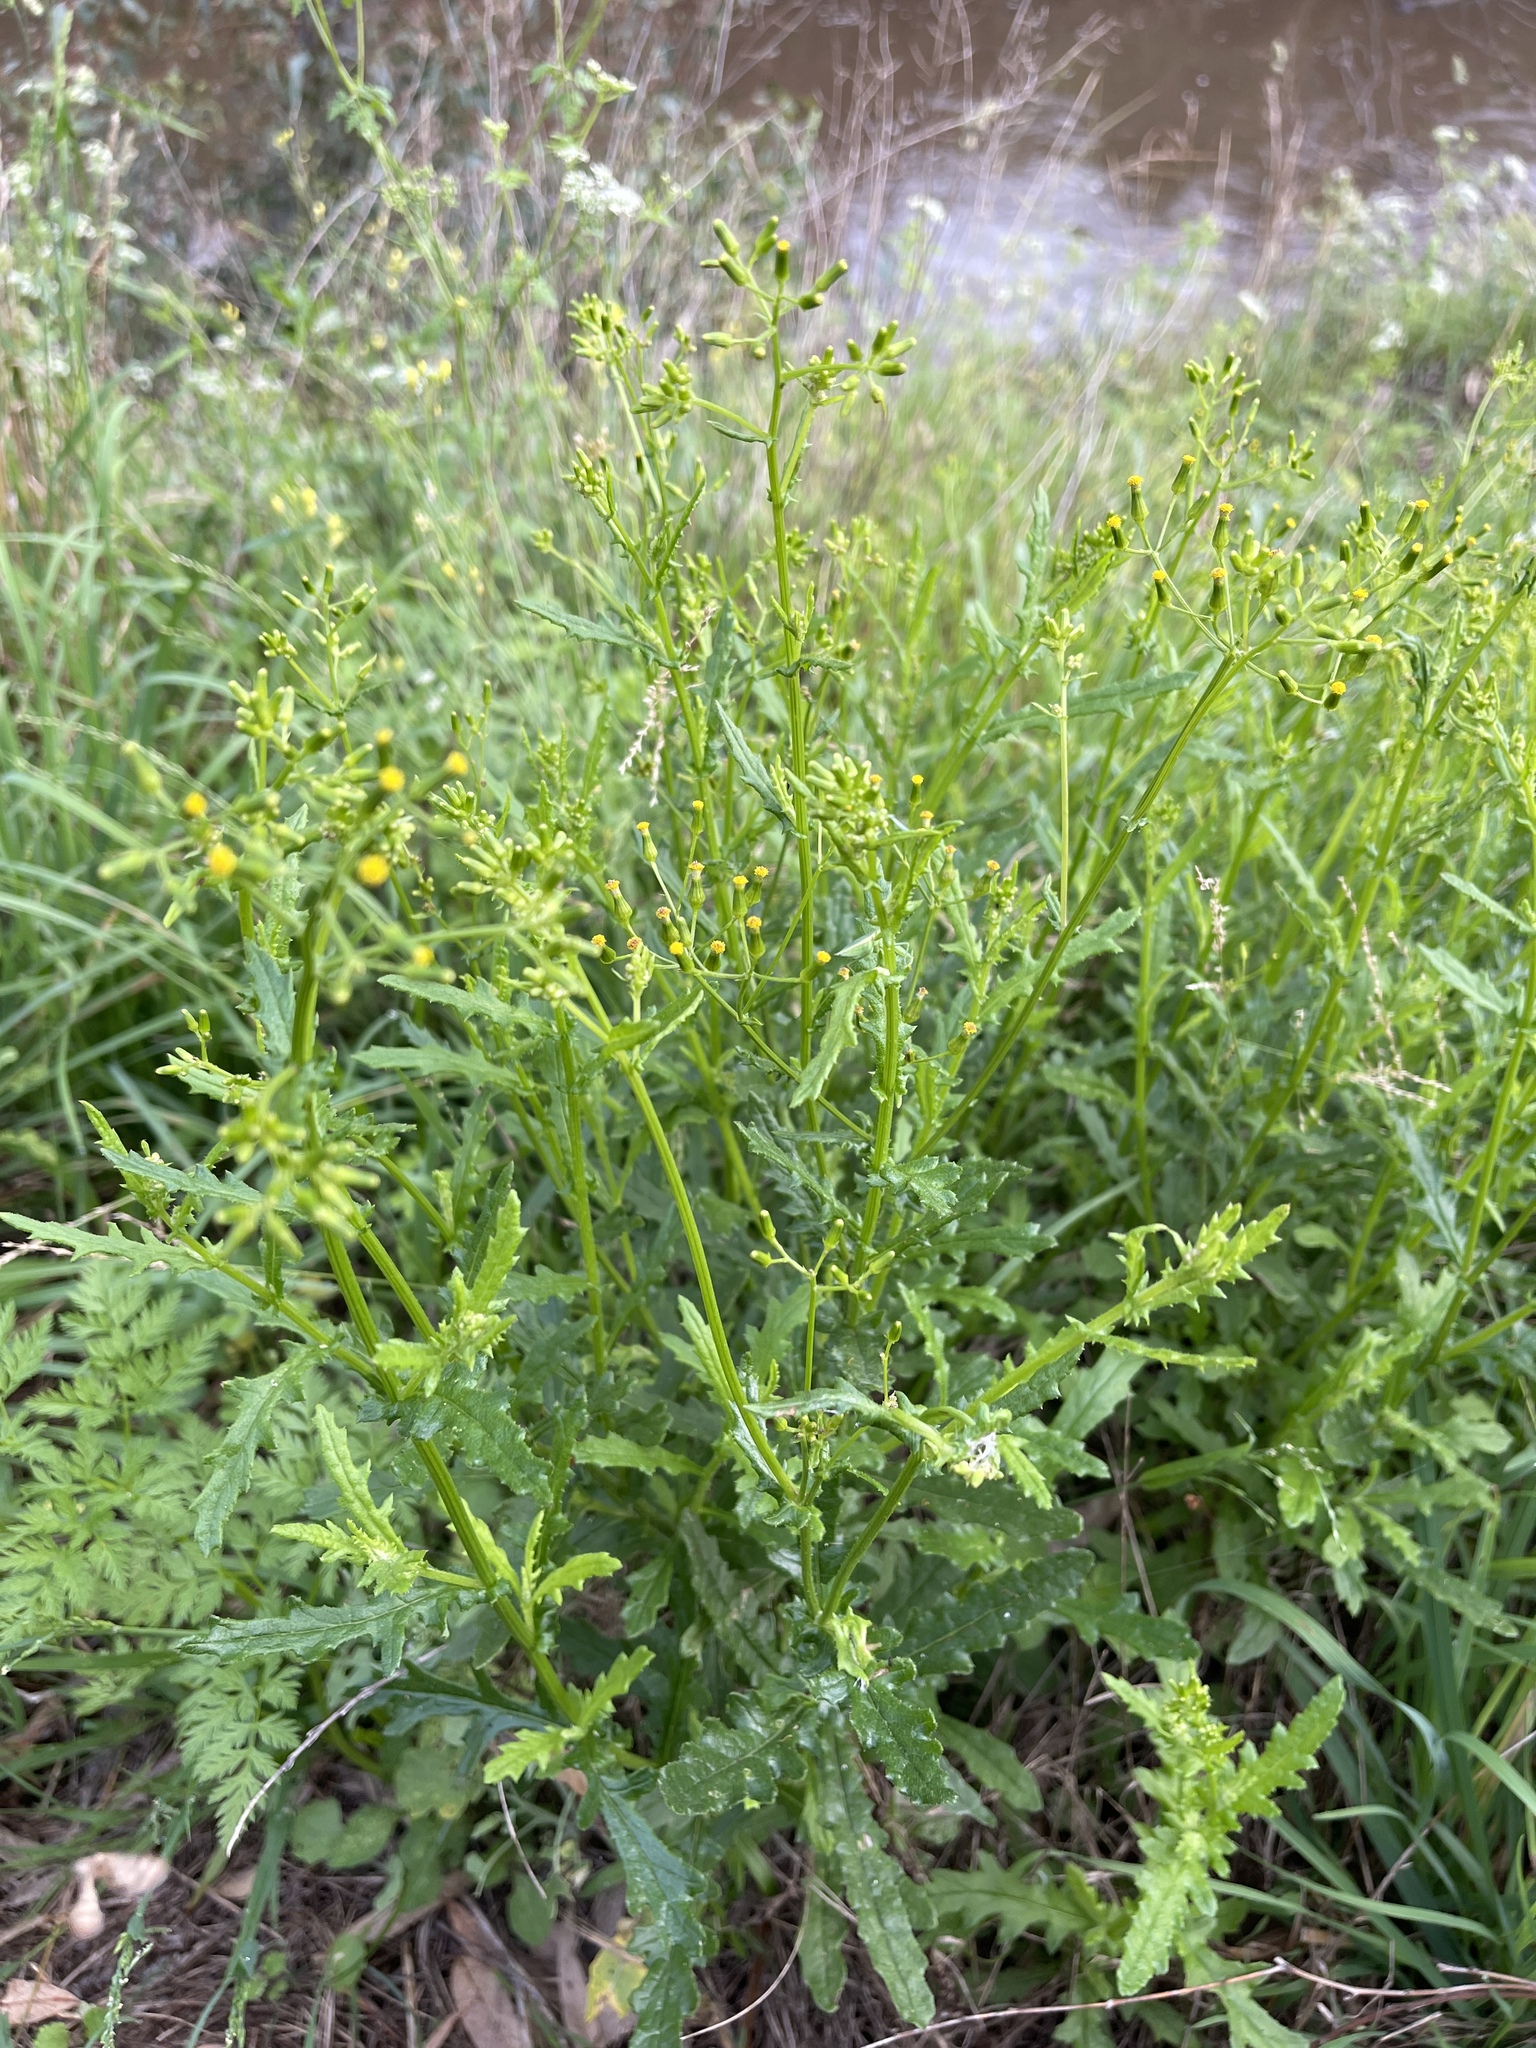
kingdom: Plantae
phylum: Tracheophyta
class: Magnoliopsida
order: Asterales
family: Asteraceae
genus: Senecio
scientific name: Senecio hispidulus
